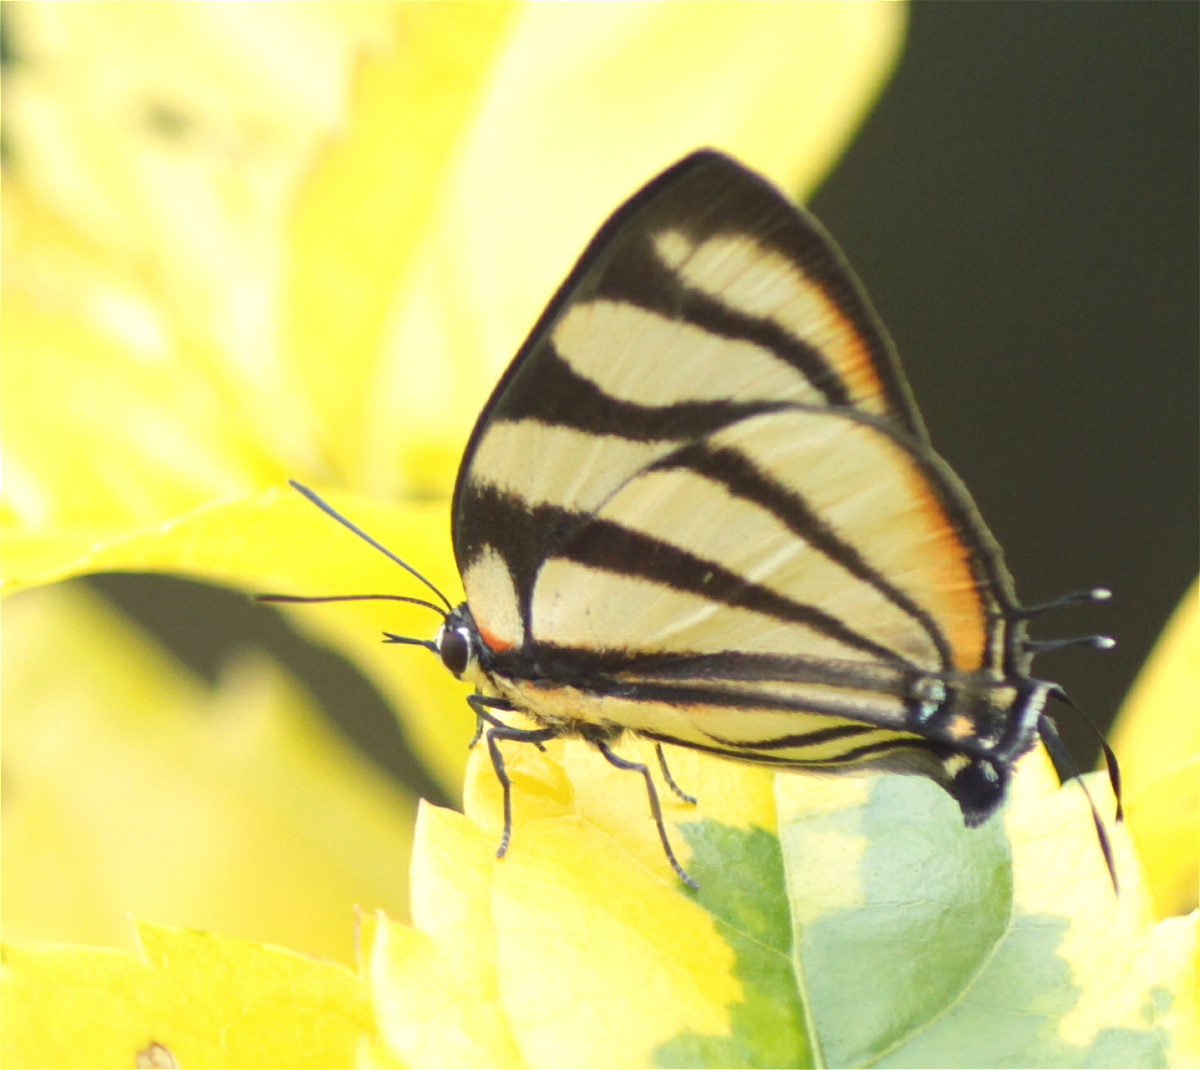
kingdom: Animalia
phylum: Arthropoda
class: Insecta
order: Lepidoptera
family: Lycaenidae
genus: Cycnus
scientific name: Cycnus phaleros
